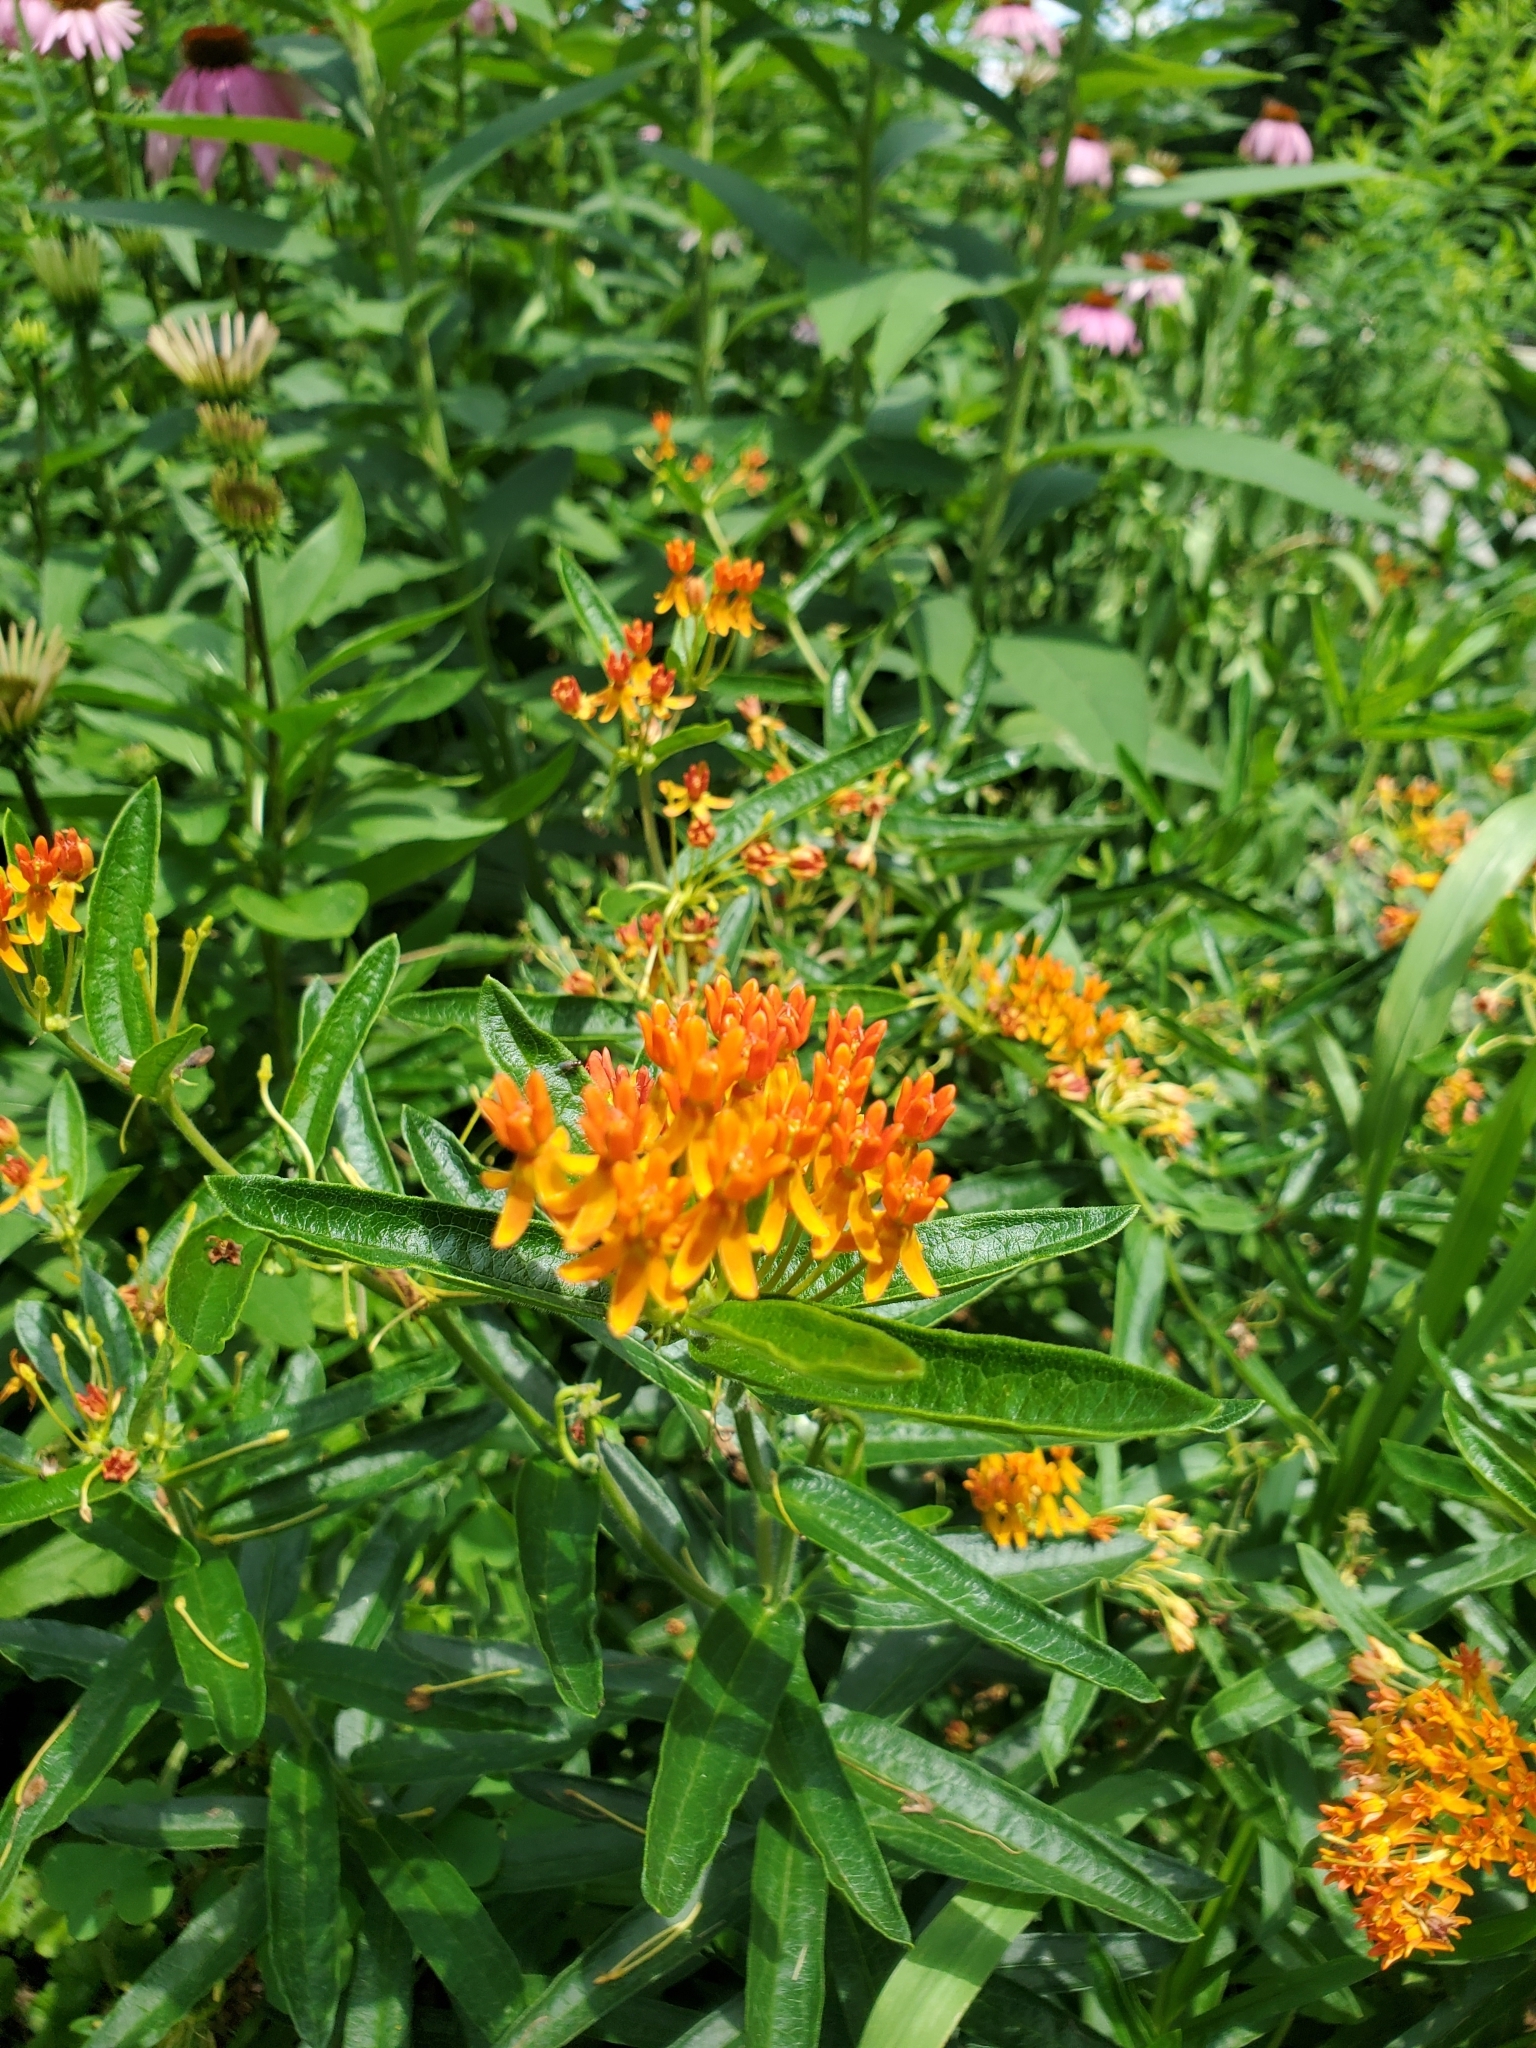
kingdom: Plantae
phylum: Tracheophyta
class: Magnoliopsida
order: Gentianales
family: Apocynaceae
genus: Asclepias
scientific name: Asclepias tuberosa
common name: Butterfly milkweed
